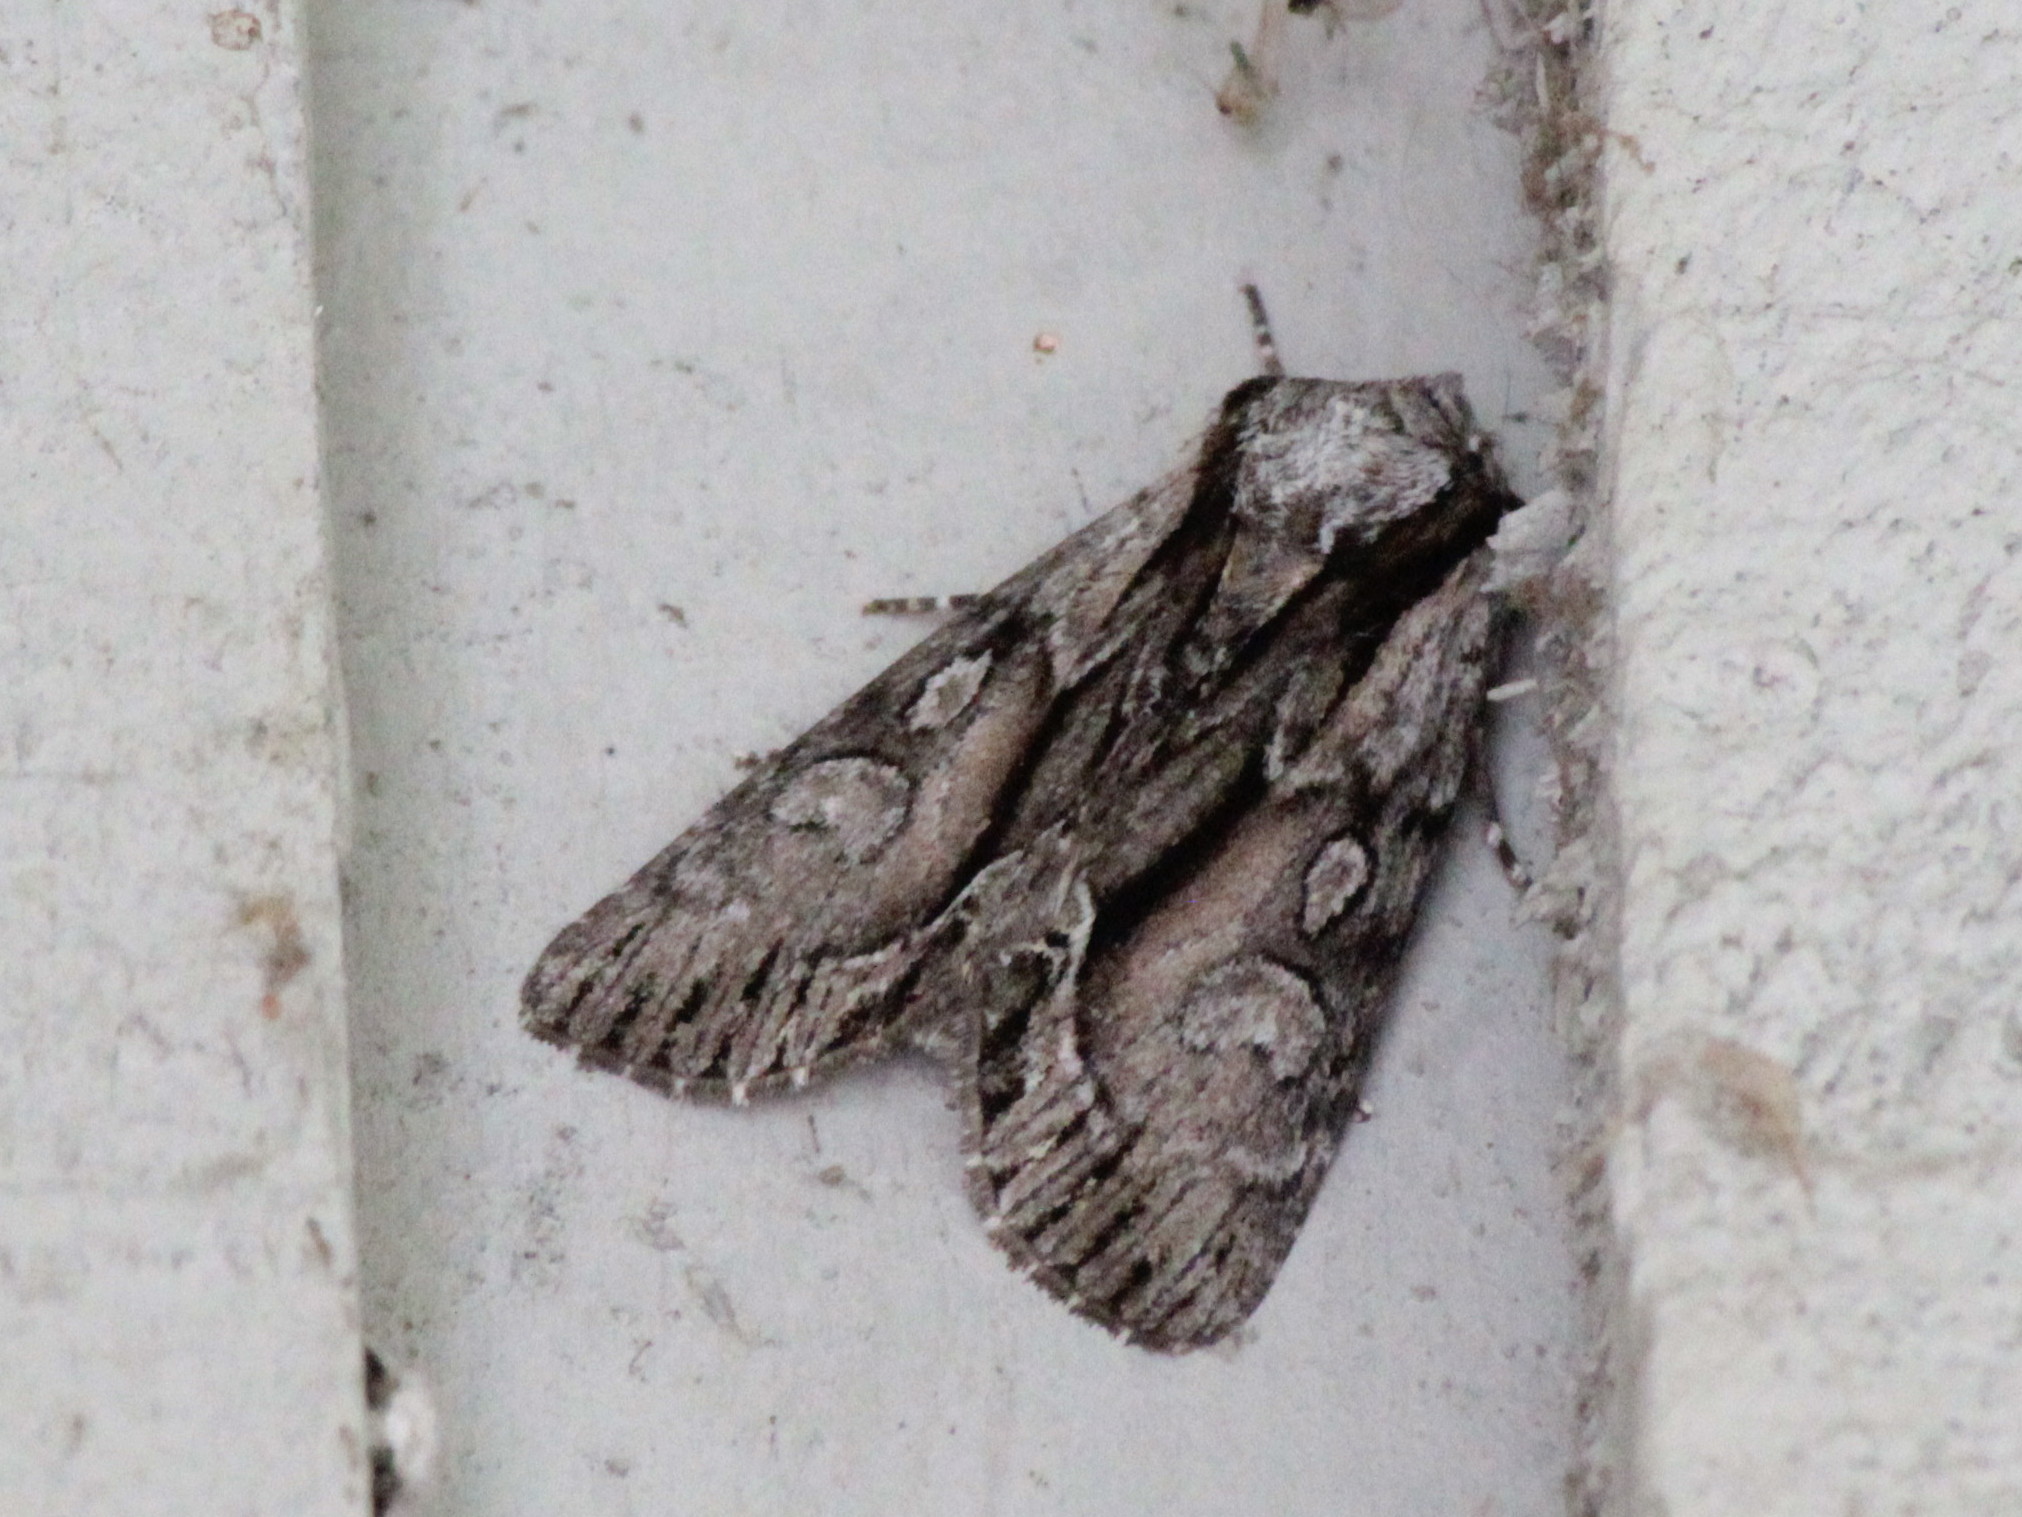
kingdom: Animalia
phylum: Arthropoda
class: Insecta
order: Lepidoptera
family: Noctuidae
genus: Hyppa
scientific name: Hyppa xylinoides
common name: Common hyppa moth
